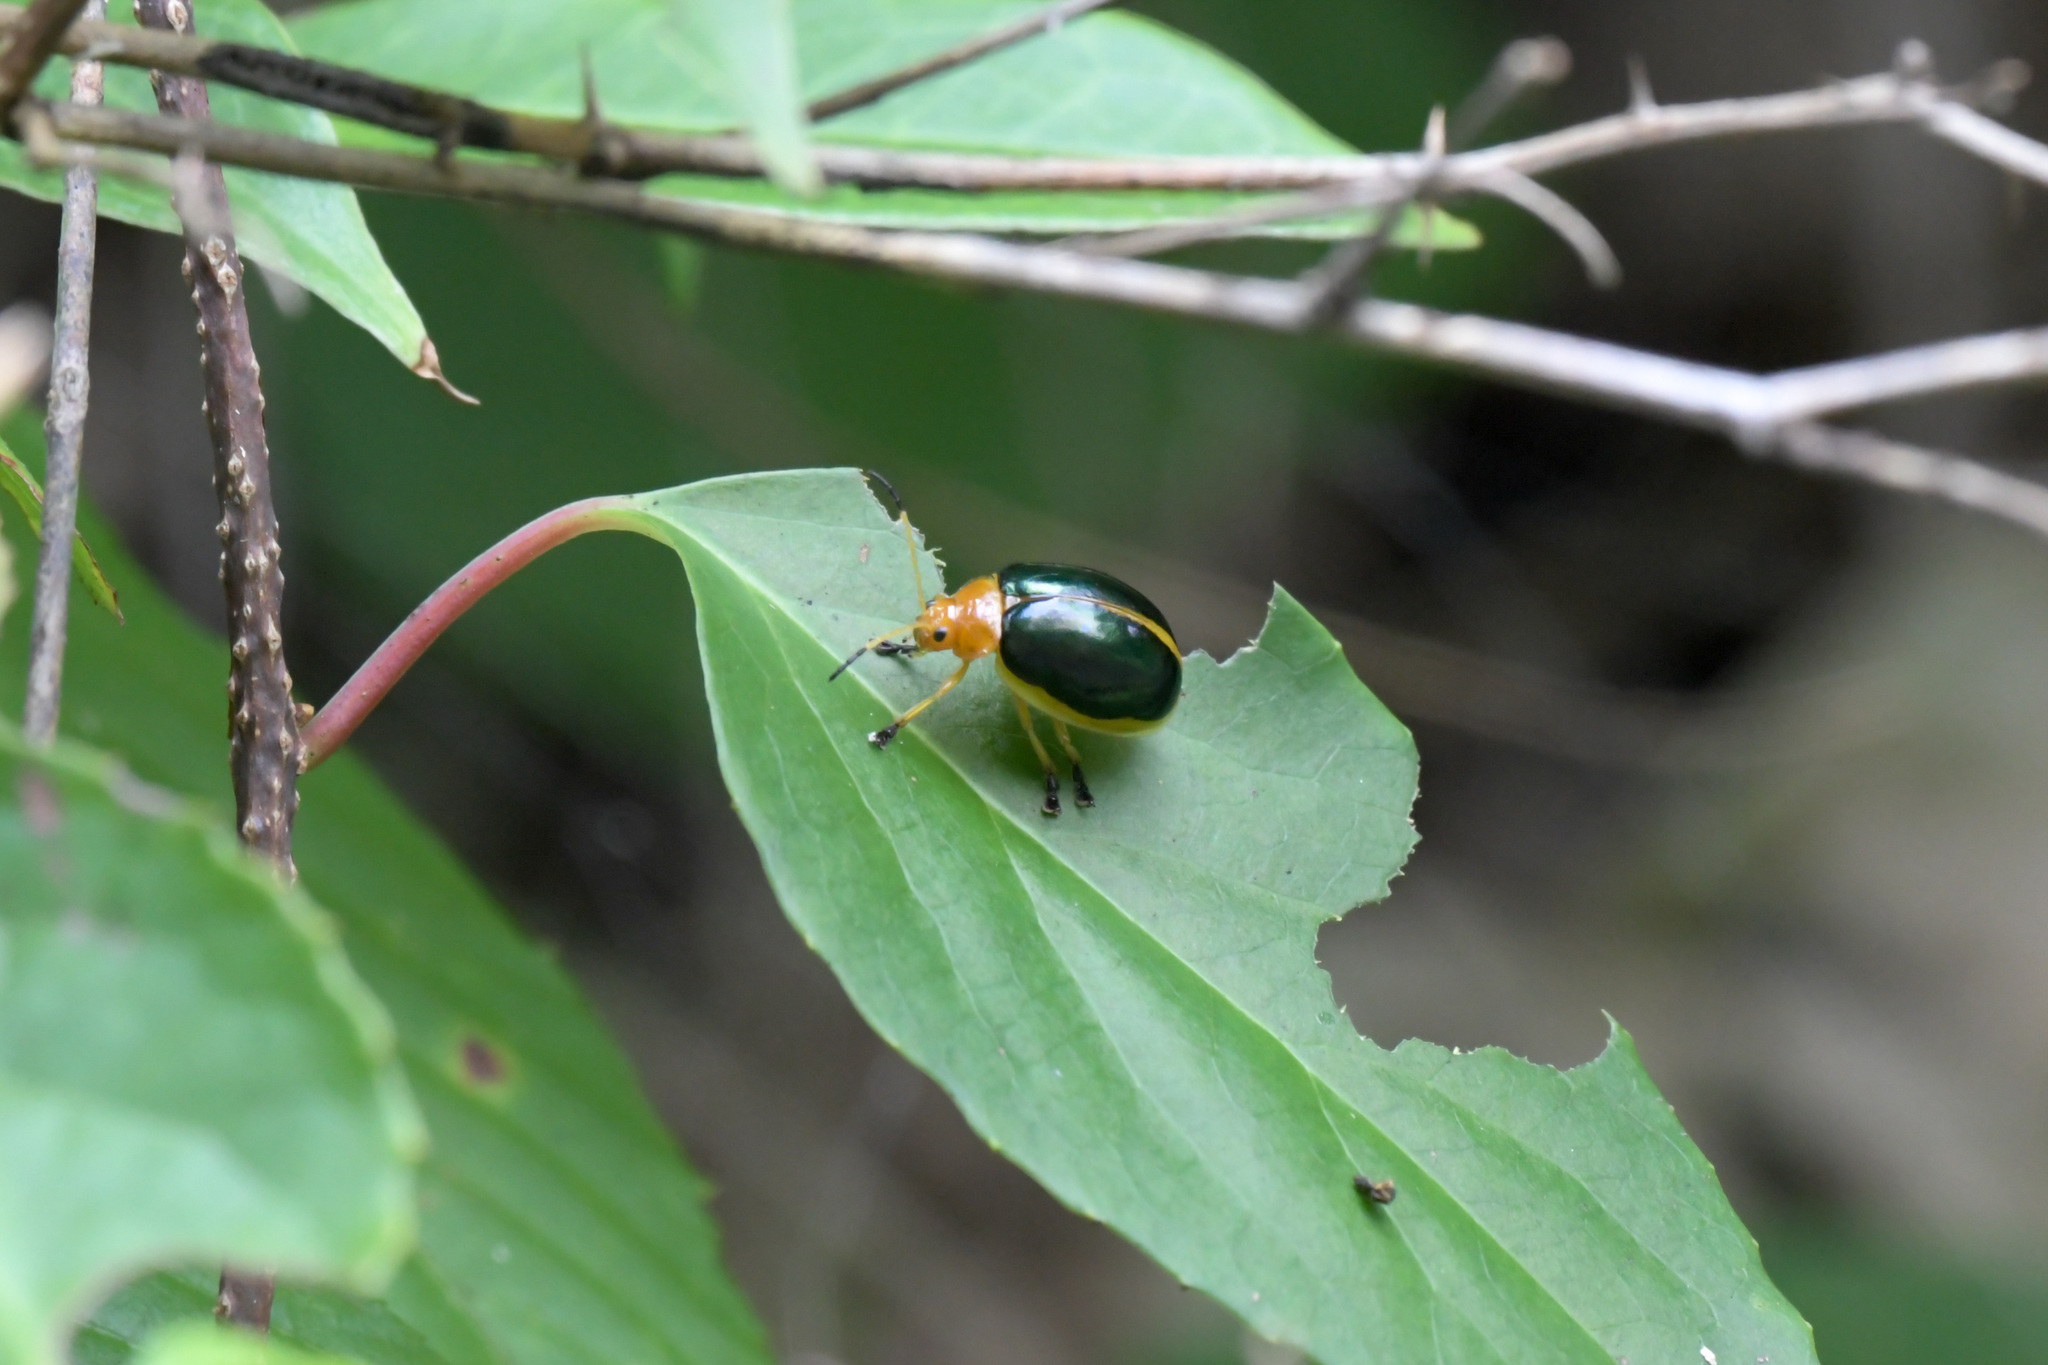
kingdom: Animalia
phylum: Arthropoda
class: Insecta
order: Coleoptera
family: Chrysomelidae
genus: Oides
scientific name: Oides bowringii
